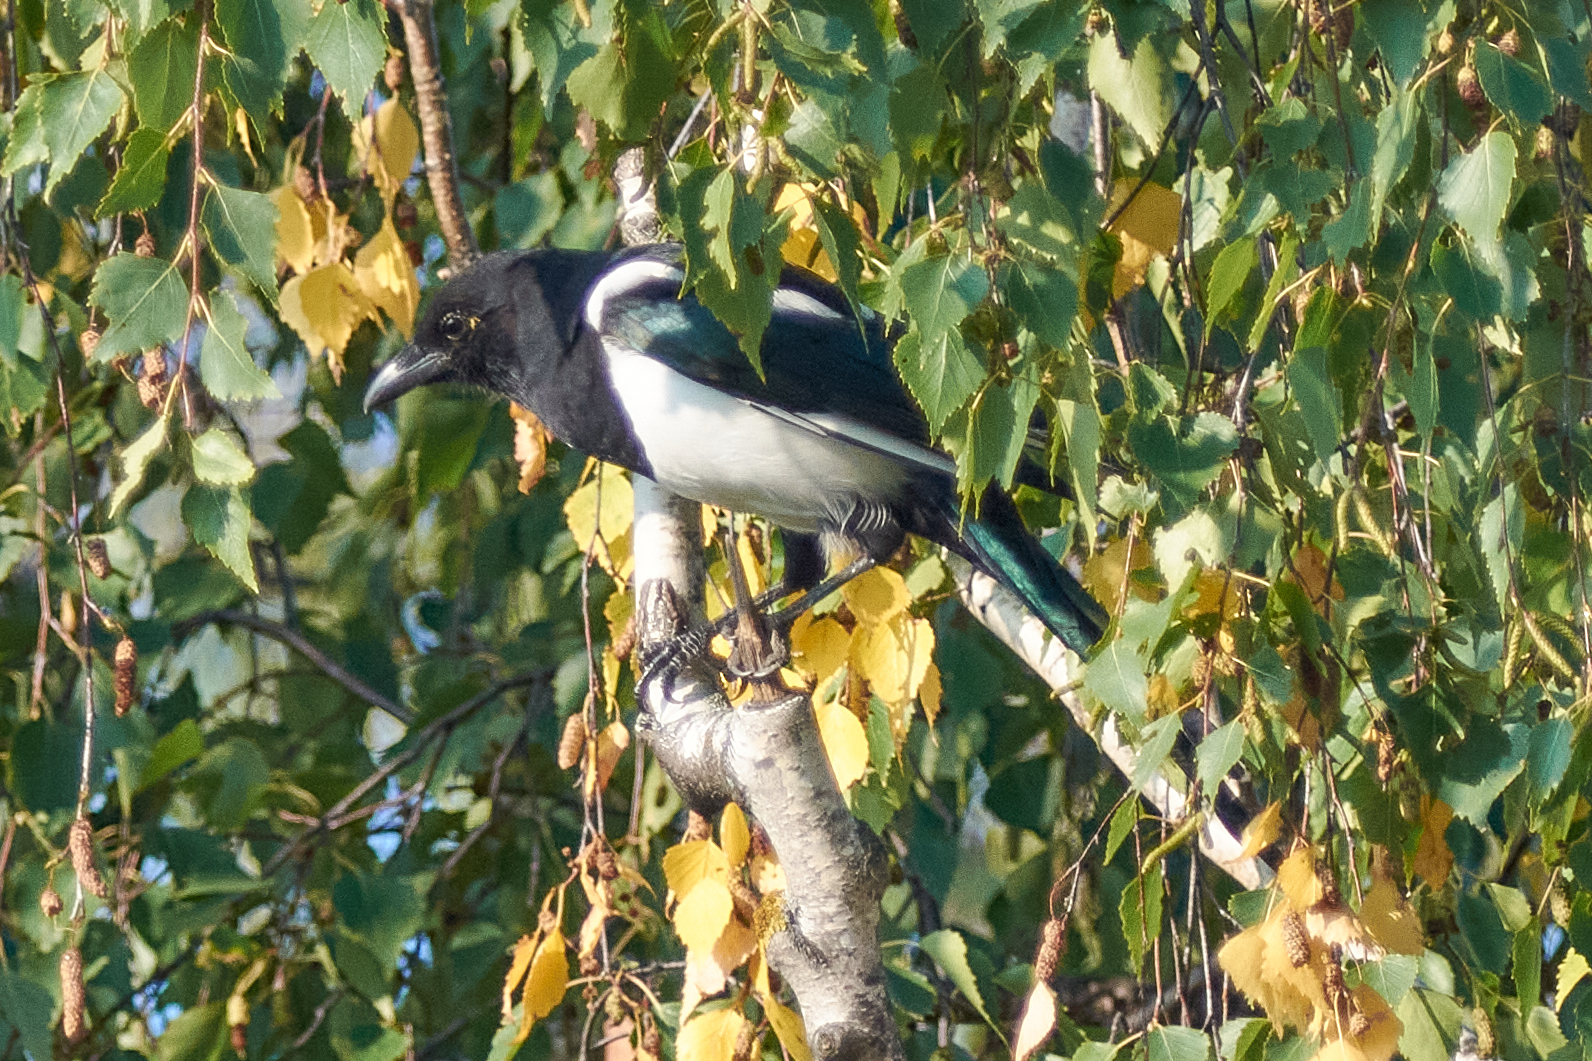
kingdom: Animalia
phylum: Chordata
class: Aves
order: Passeriformes
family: Corvidae
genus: Pica
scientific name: Pica pica
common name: Eurasian magpie
